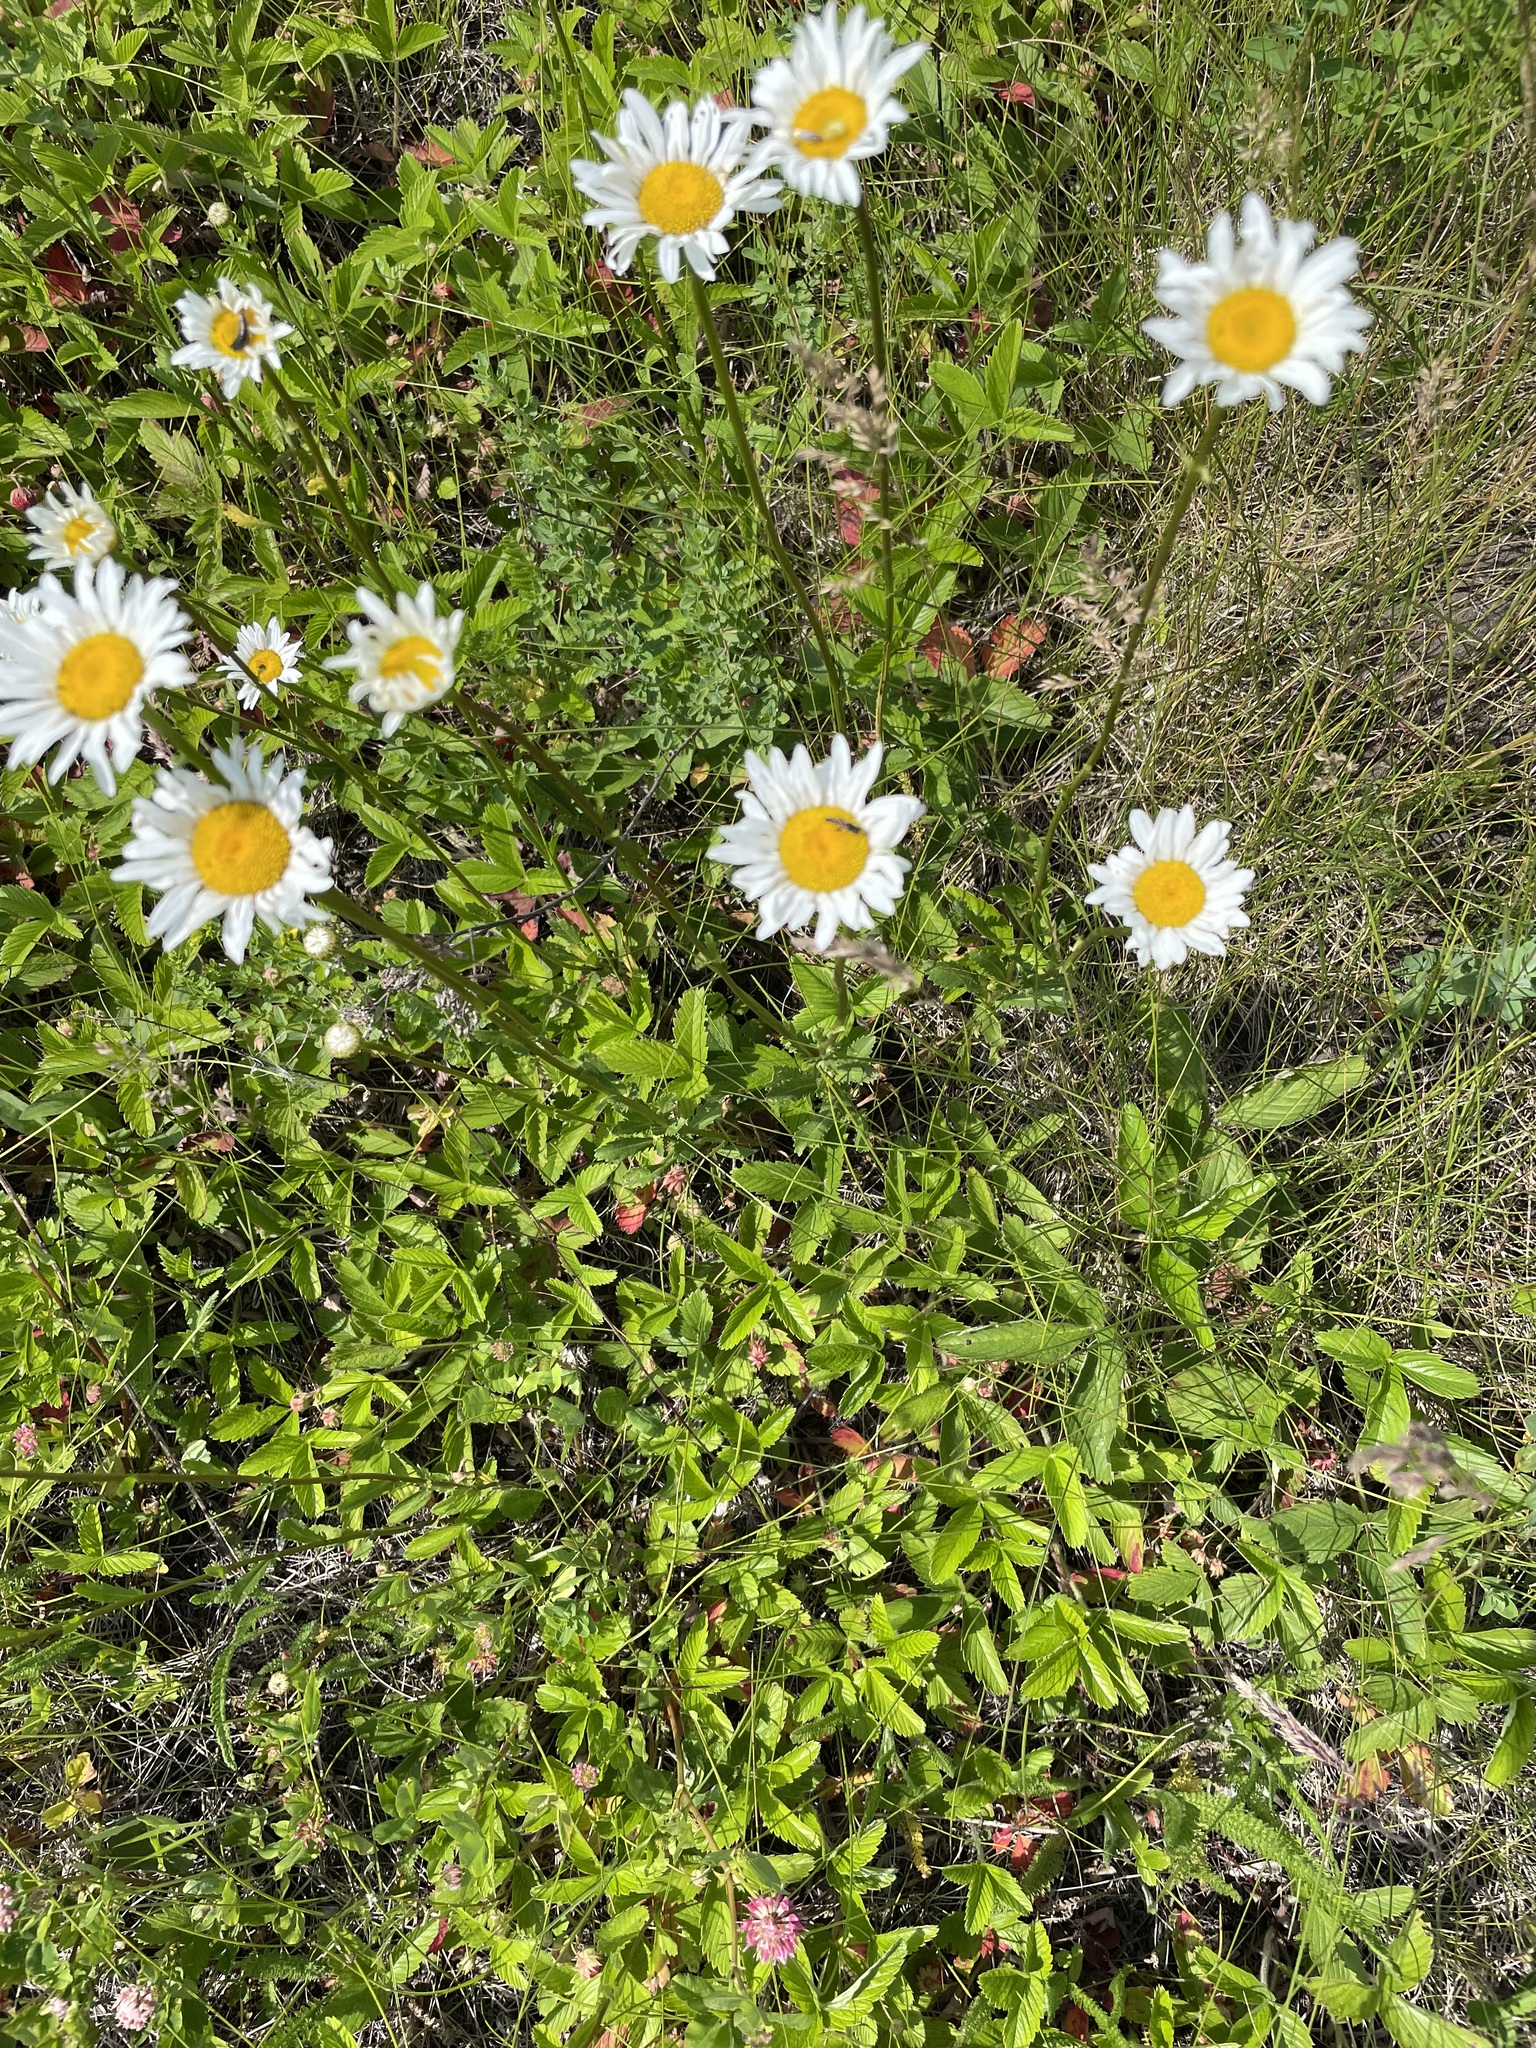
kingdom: Plantae
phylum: Tracheophyta
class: Magnoliopsida
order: Asterales
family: Asteraceae
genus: Leucanthemum
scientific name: Leucanthemum vulgare
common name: Oxeye daisy
